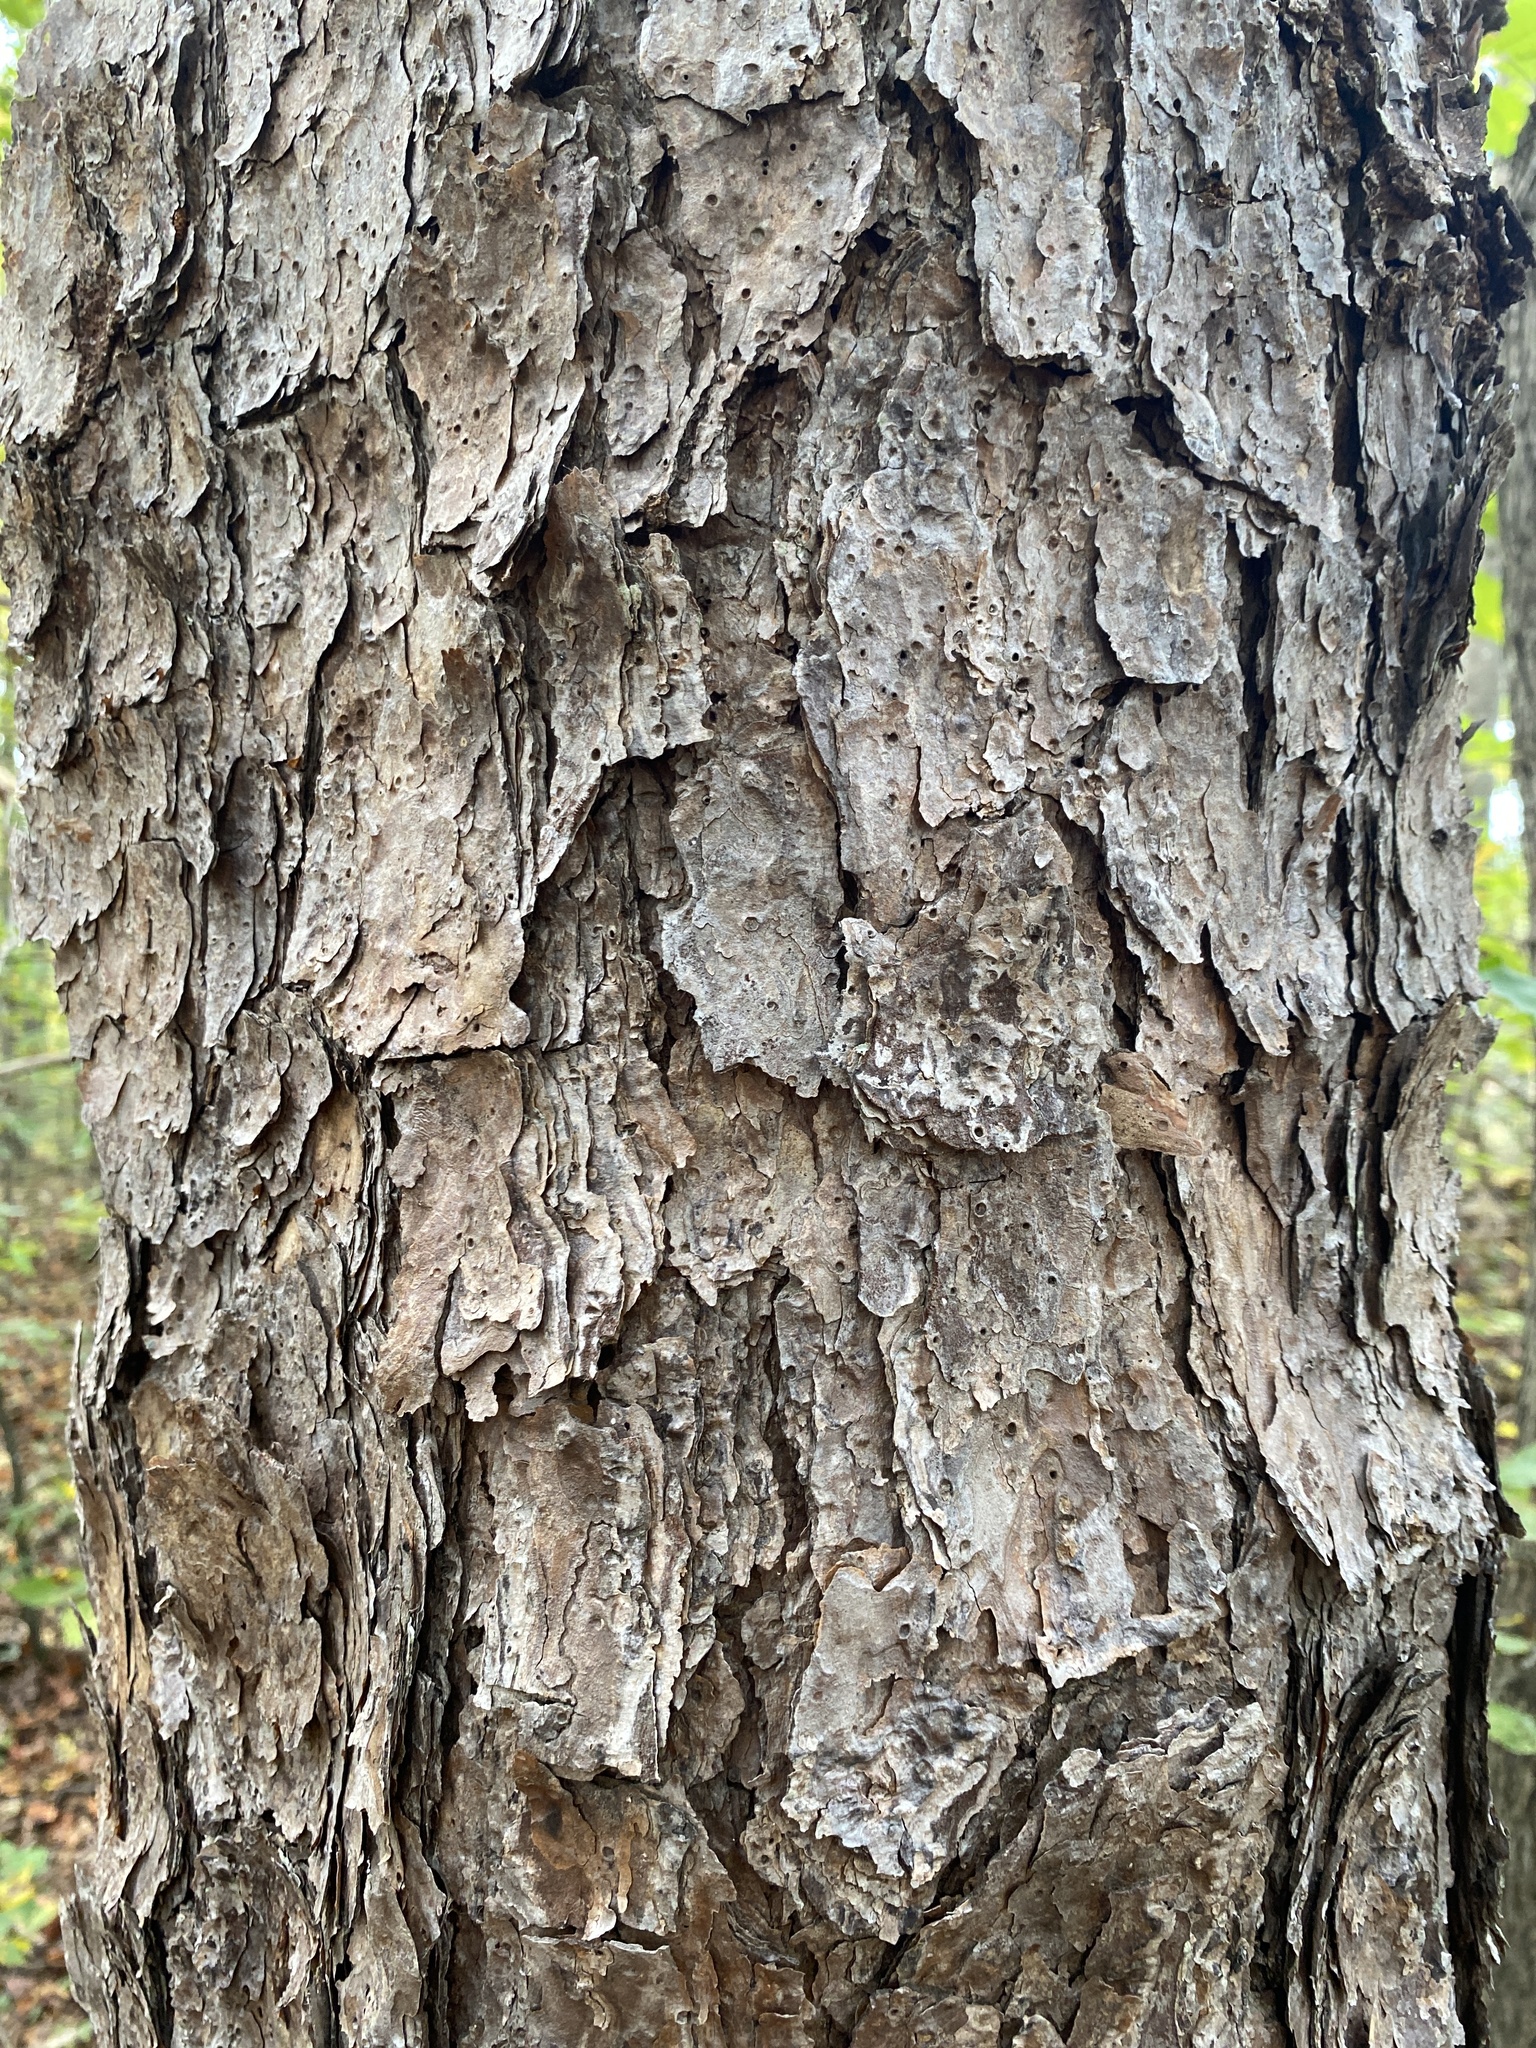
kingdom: Plantae
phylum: Tracheophyta
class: Pinopsida
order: Pinales
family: Pinaceae
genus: Pinus
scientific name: Pinus echinata
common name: Shortleaf pine
